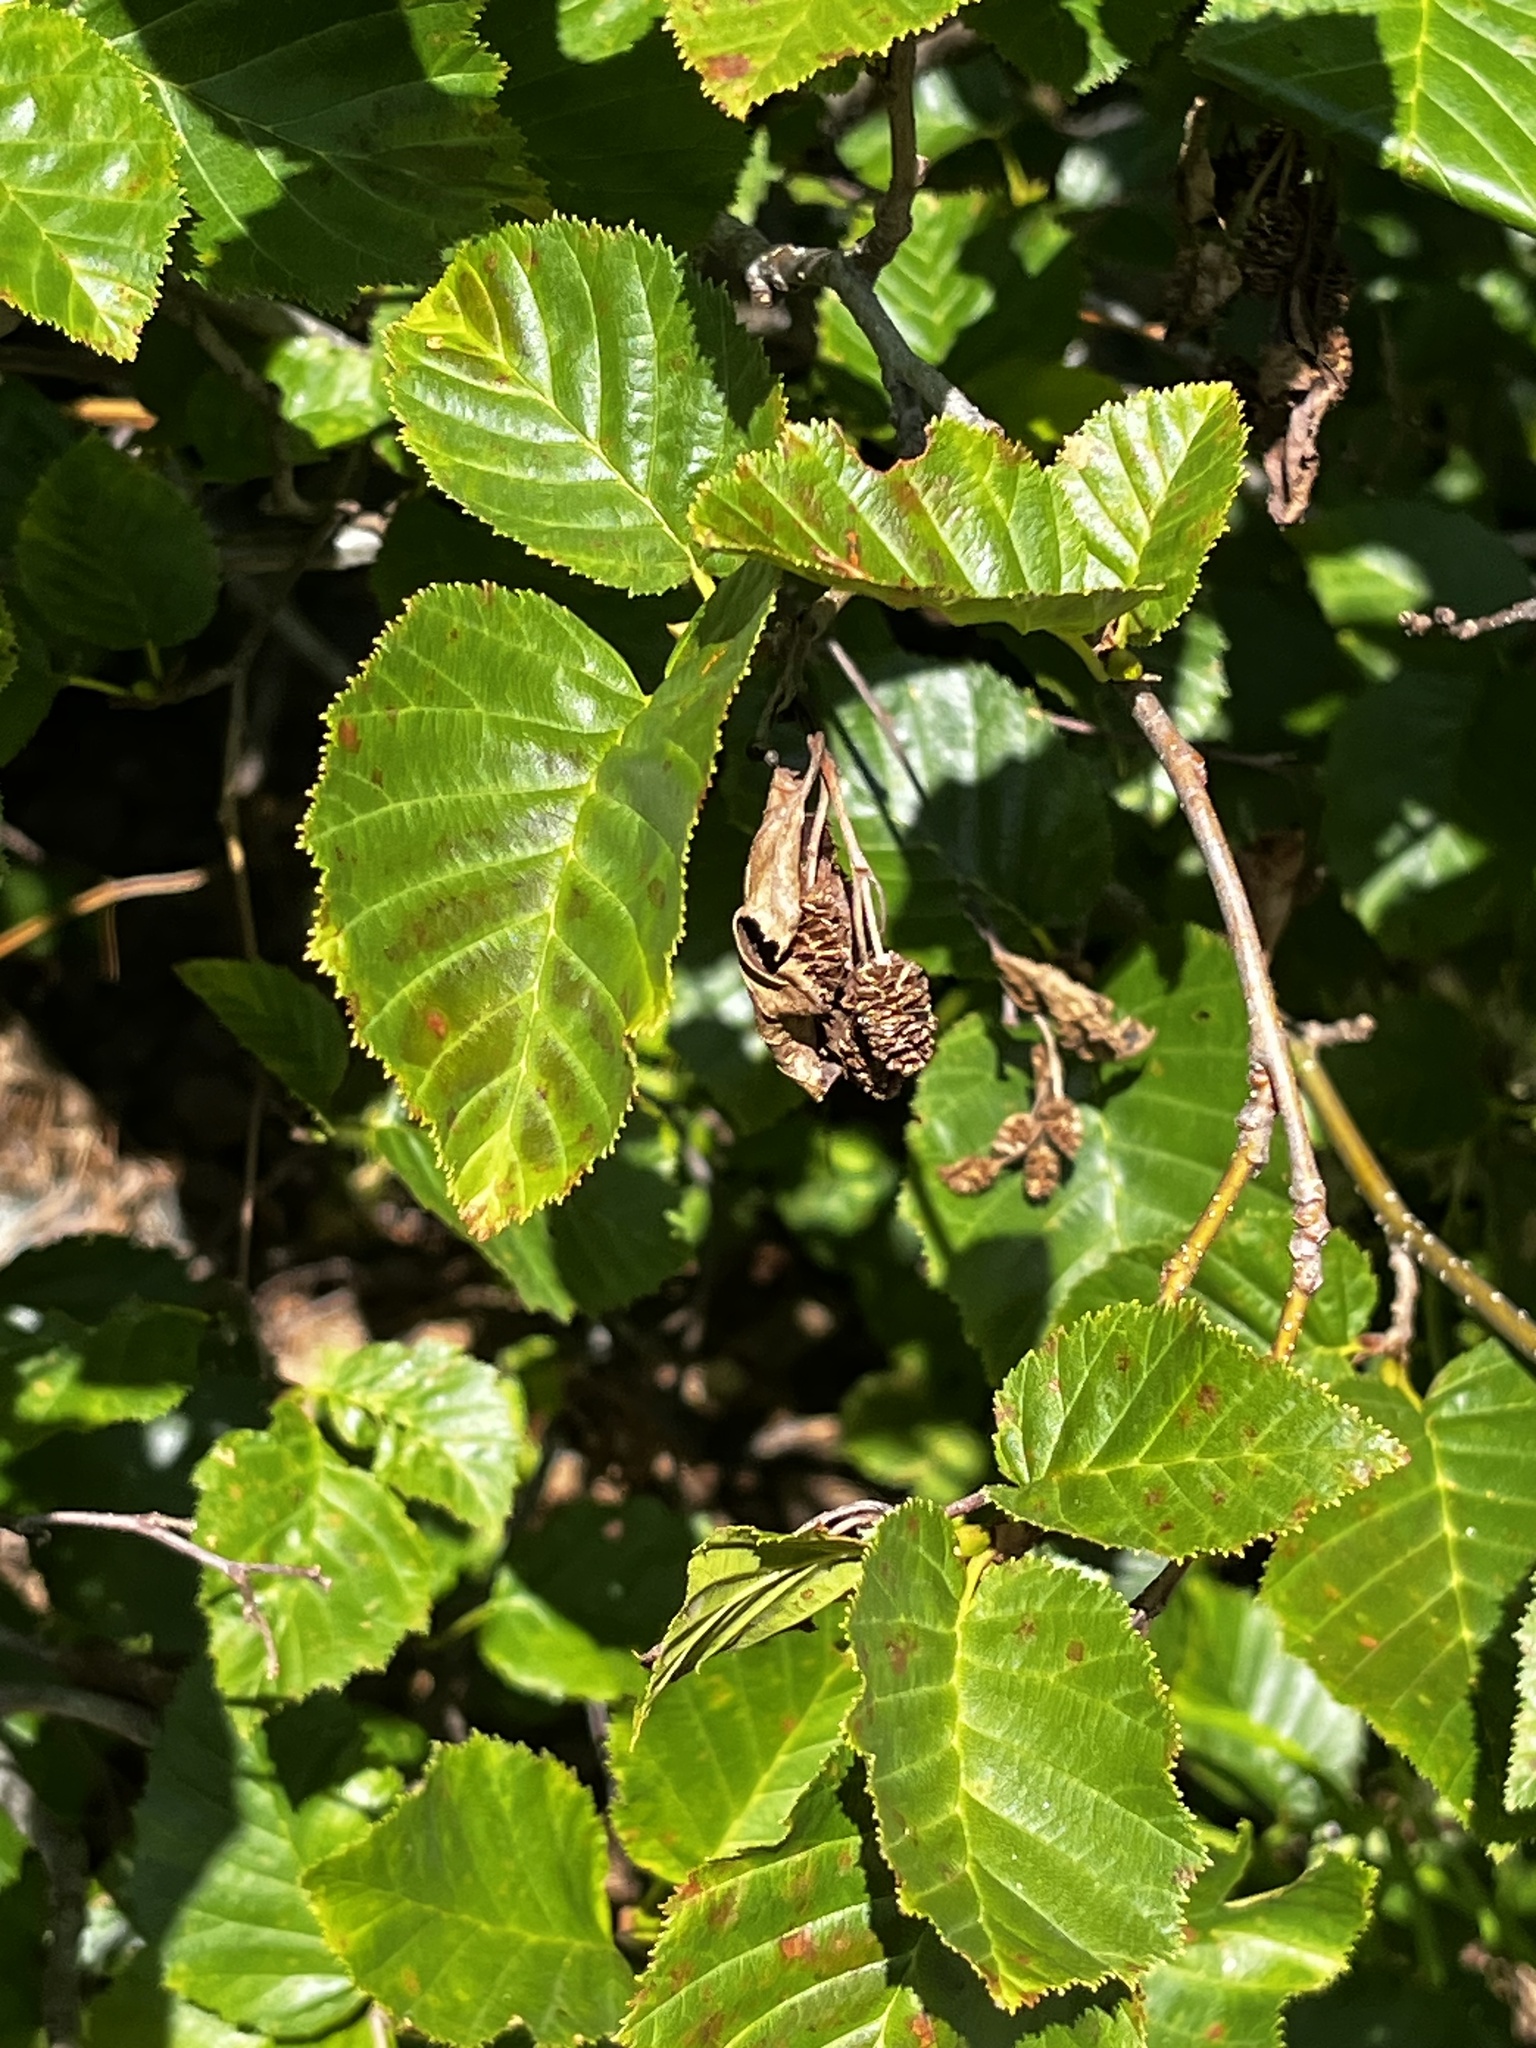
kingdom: Plantae
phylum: Tracheophyta
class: Magnoliopsida
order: Fagales
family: Betulaceae
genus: Alnus
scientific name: Alnus alnobetula
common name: Green alder
